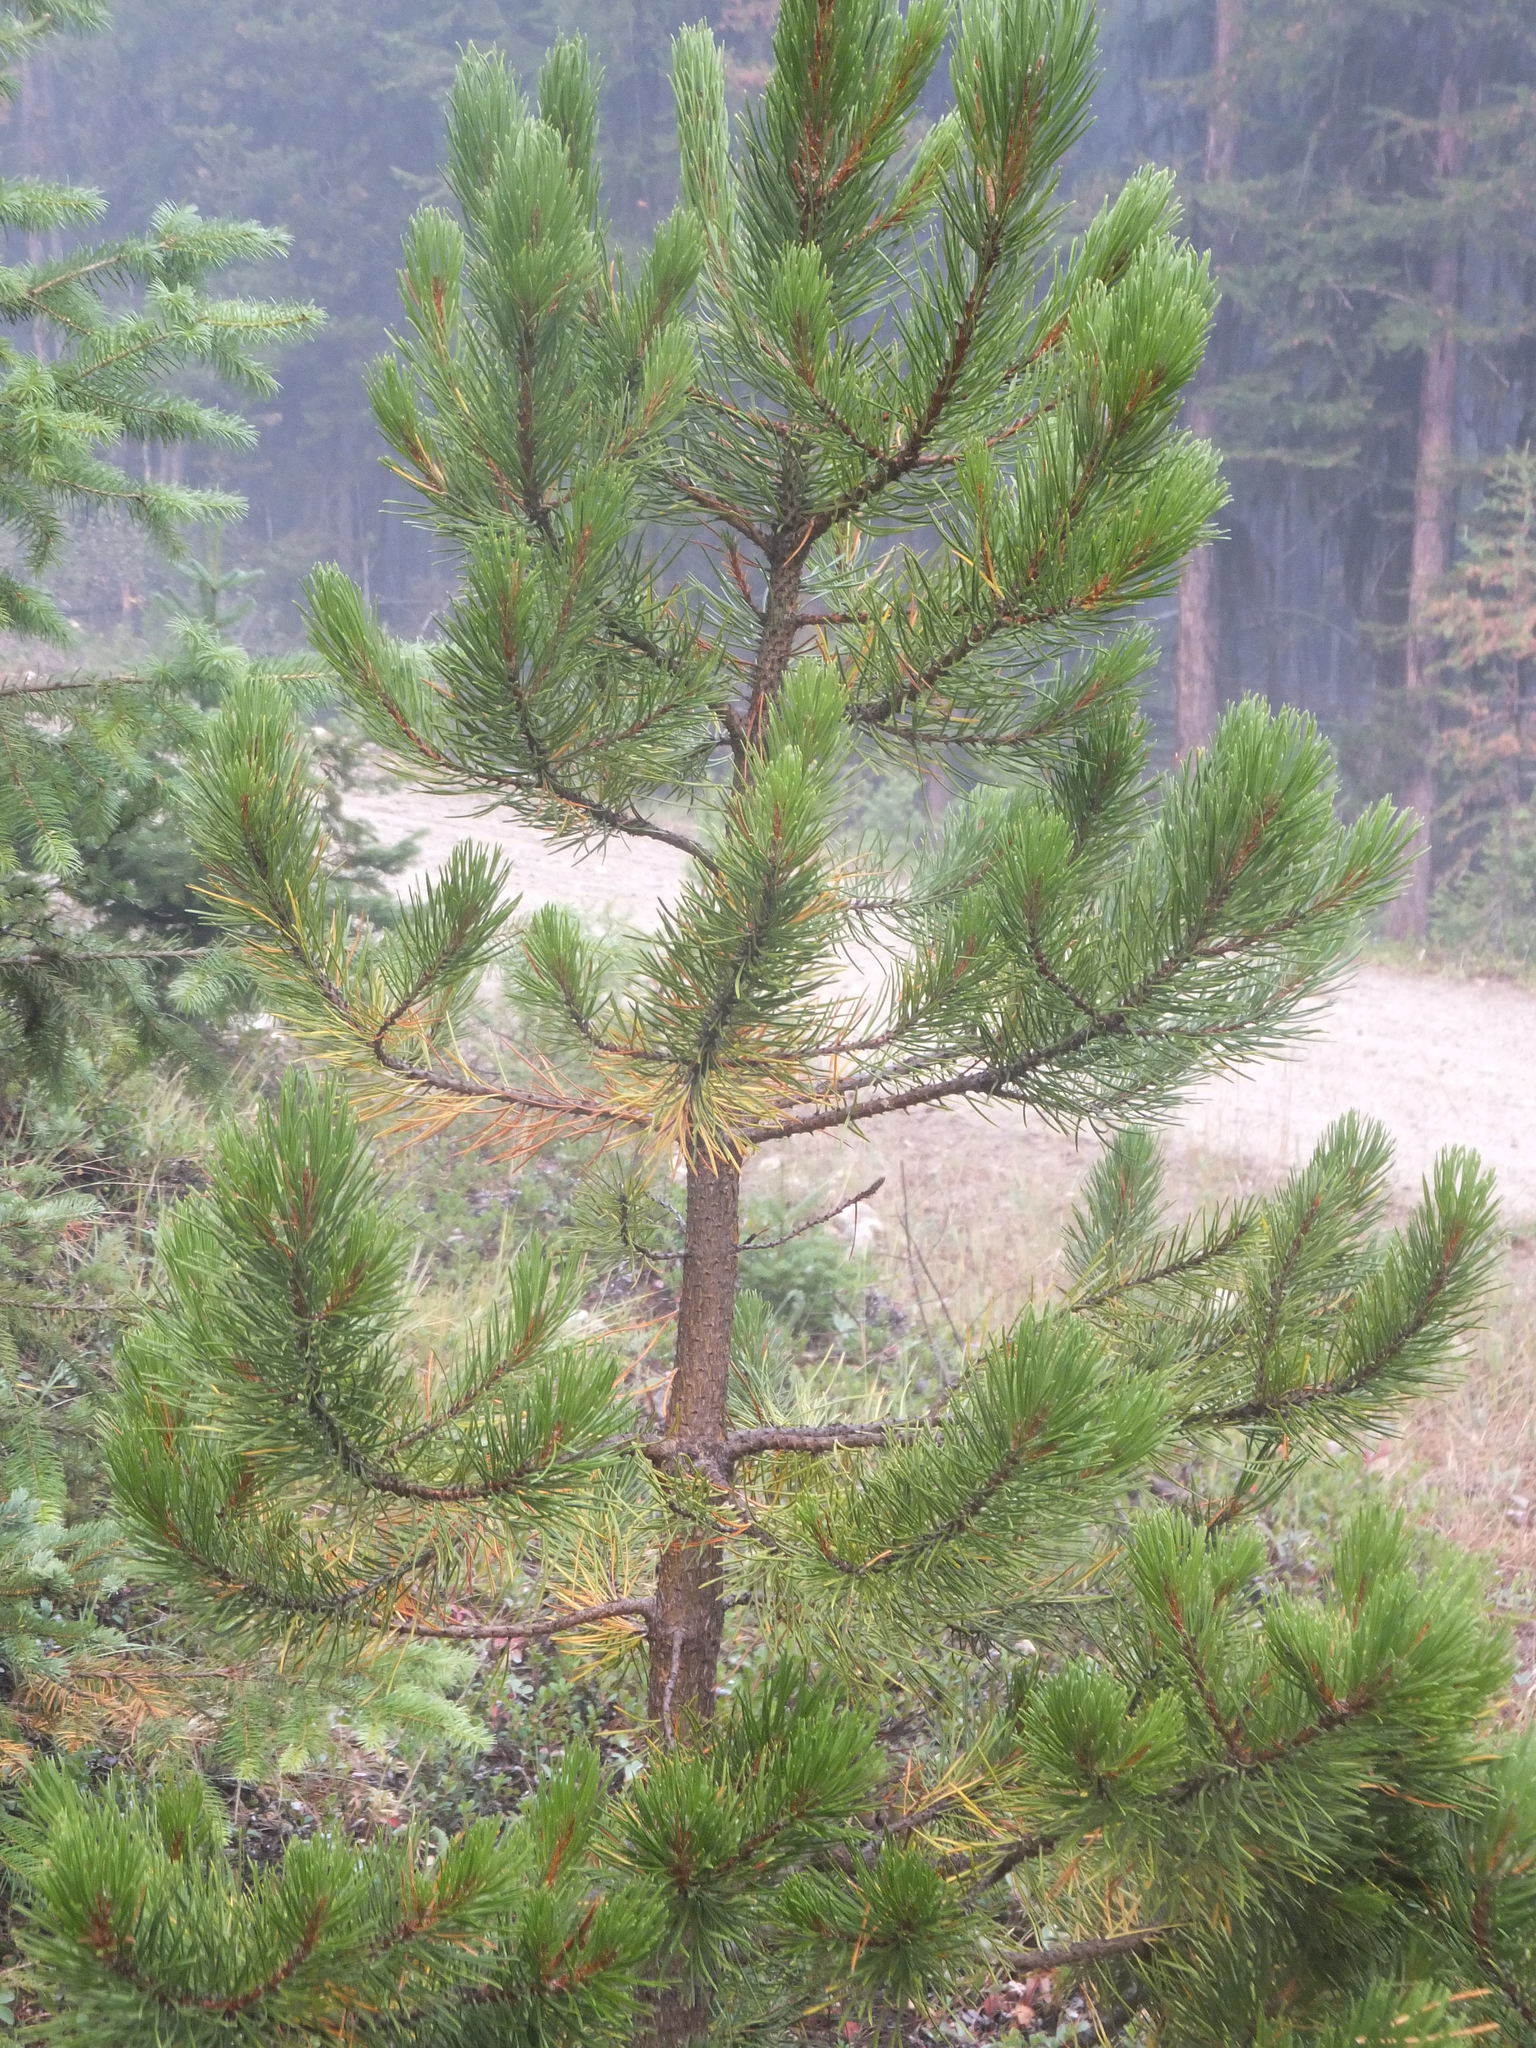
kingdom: Plantae
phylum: Tracheophyta
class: Pinopsida
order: Pinales
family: Pinaceae
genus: Pinus
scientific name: Pinus contorta
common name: Lodgepole pine
